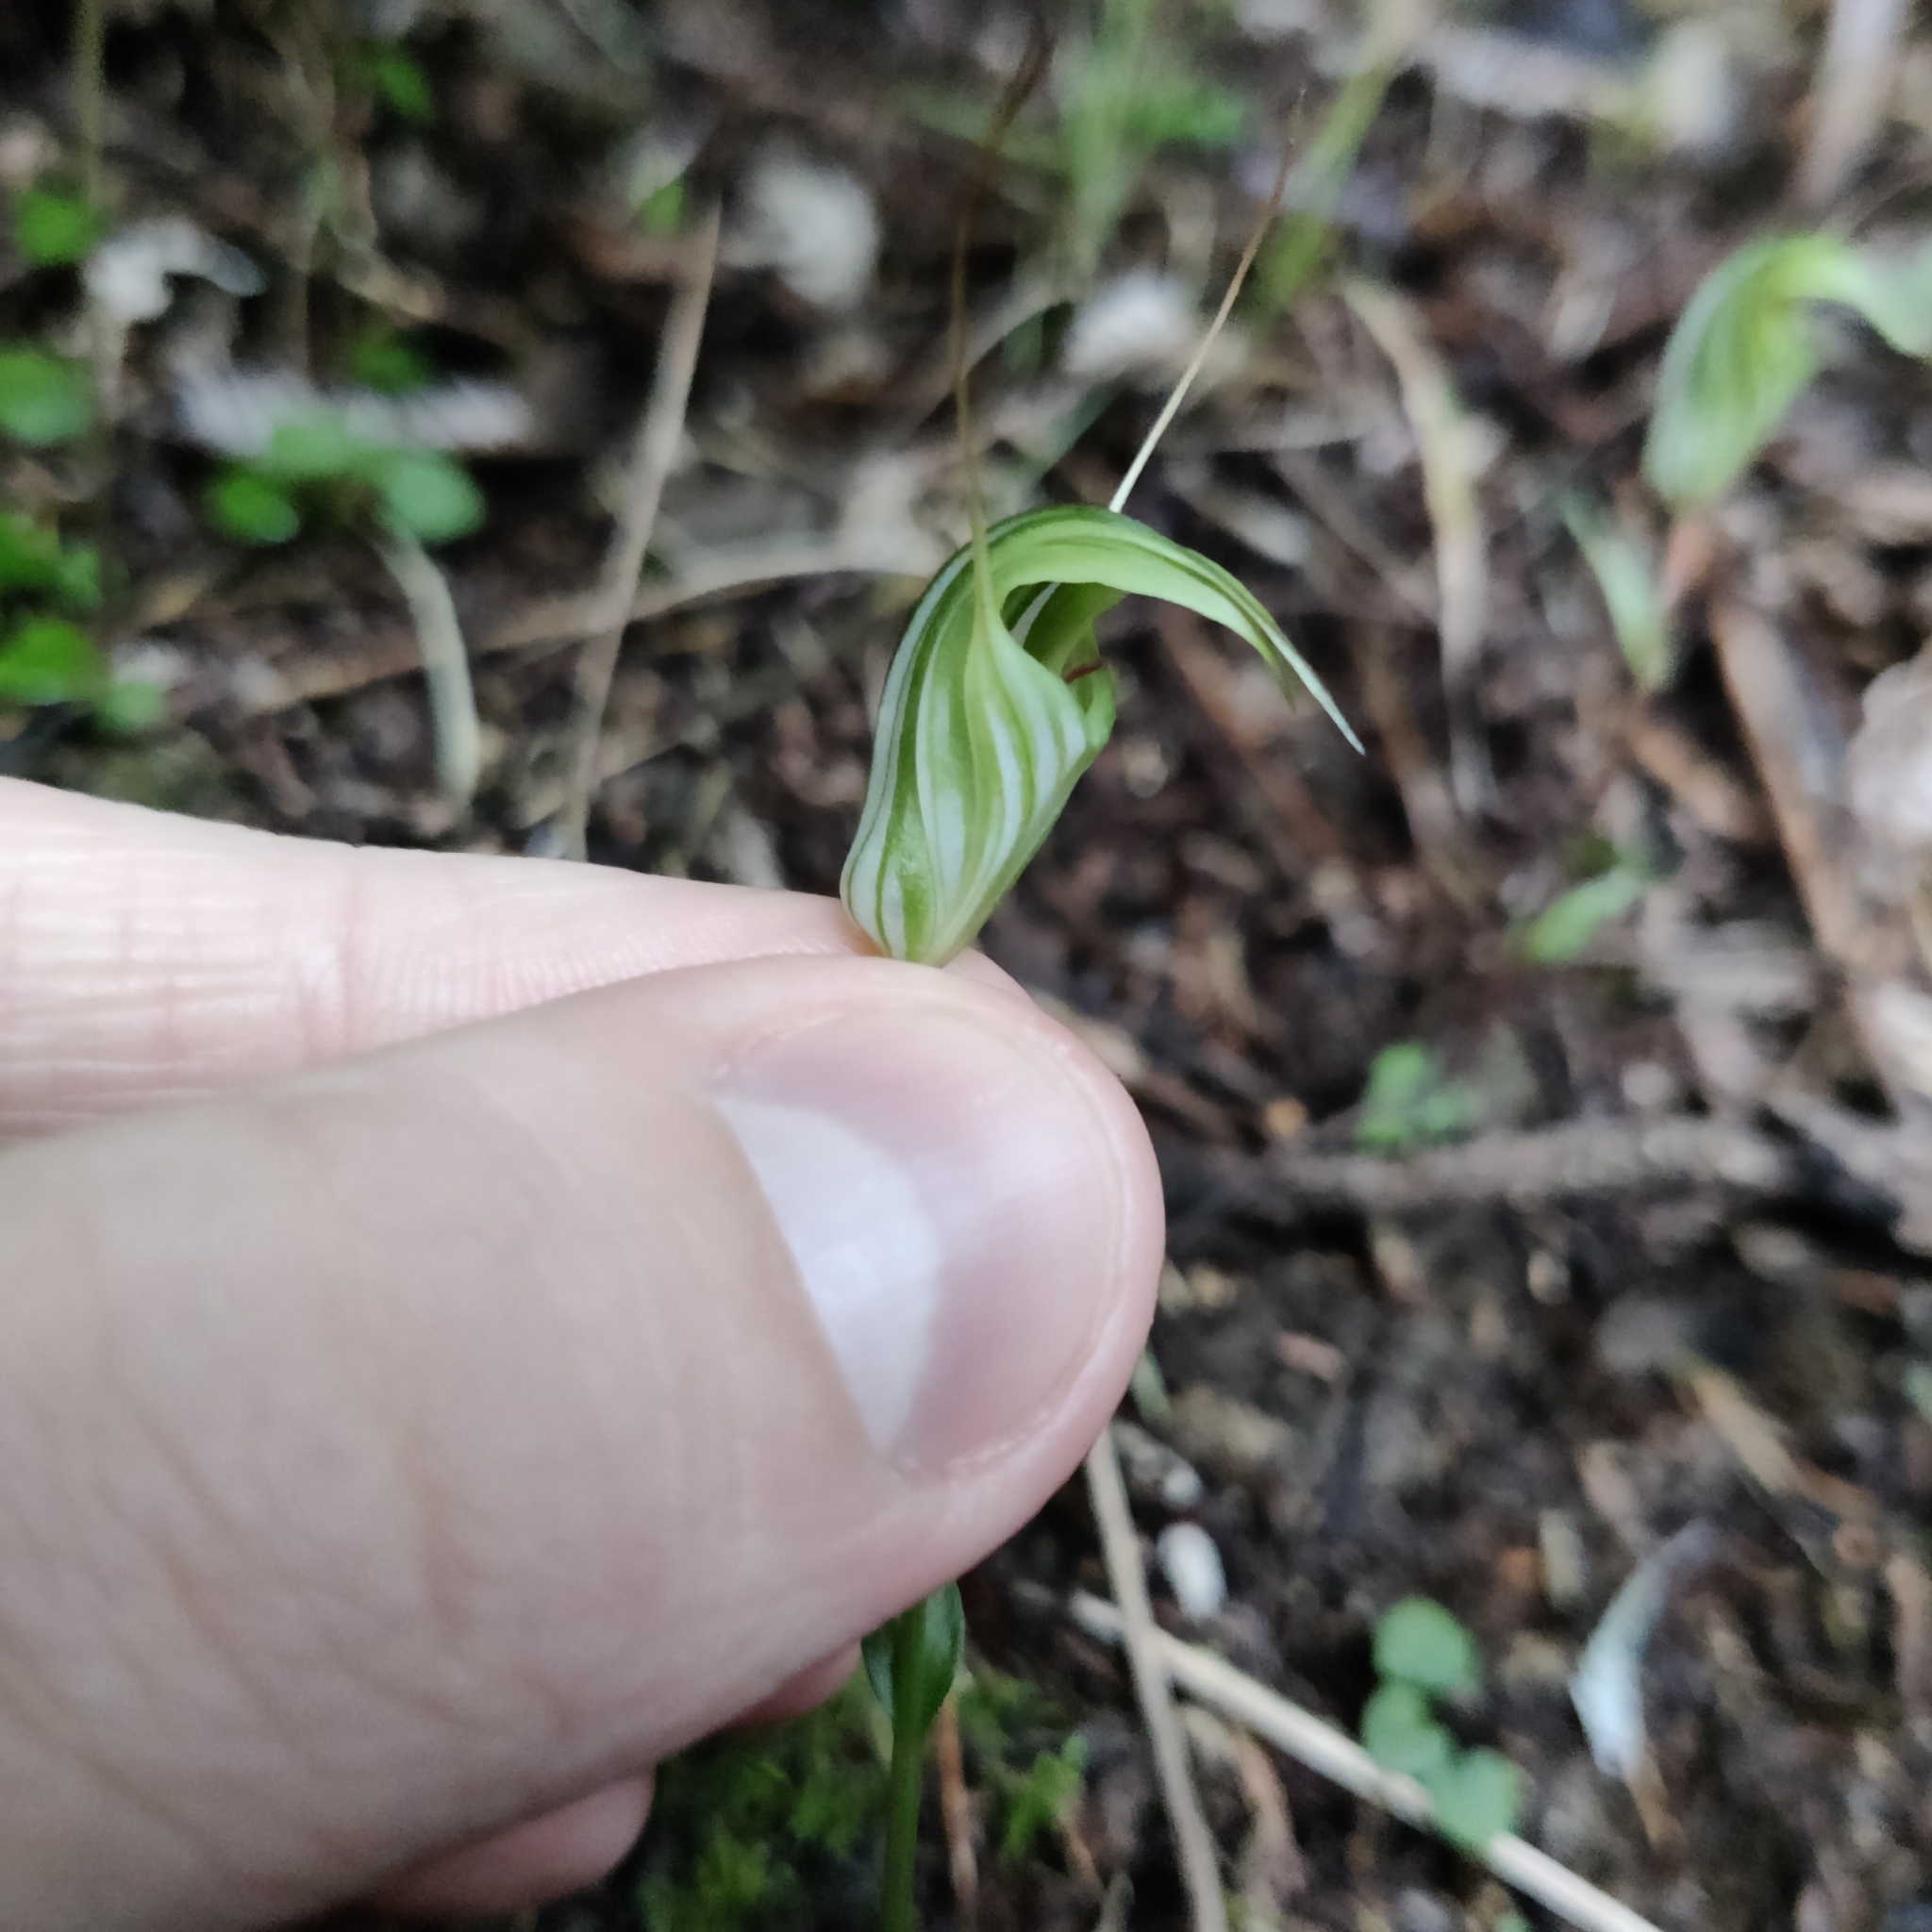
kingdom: Plantae
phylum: Tracheophyta
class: Liliopsida
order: Asparagales
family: Orchidaceae
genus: Pterostylis
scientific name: Pterostylis alobula
